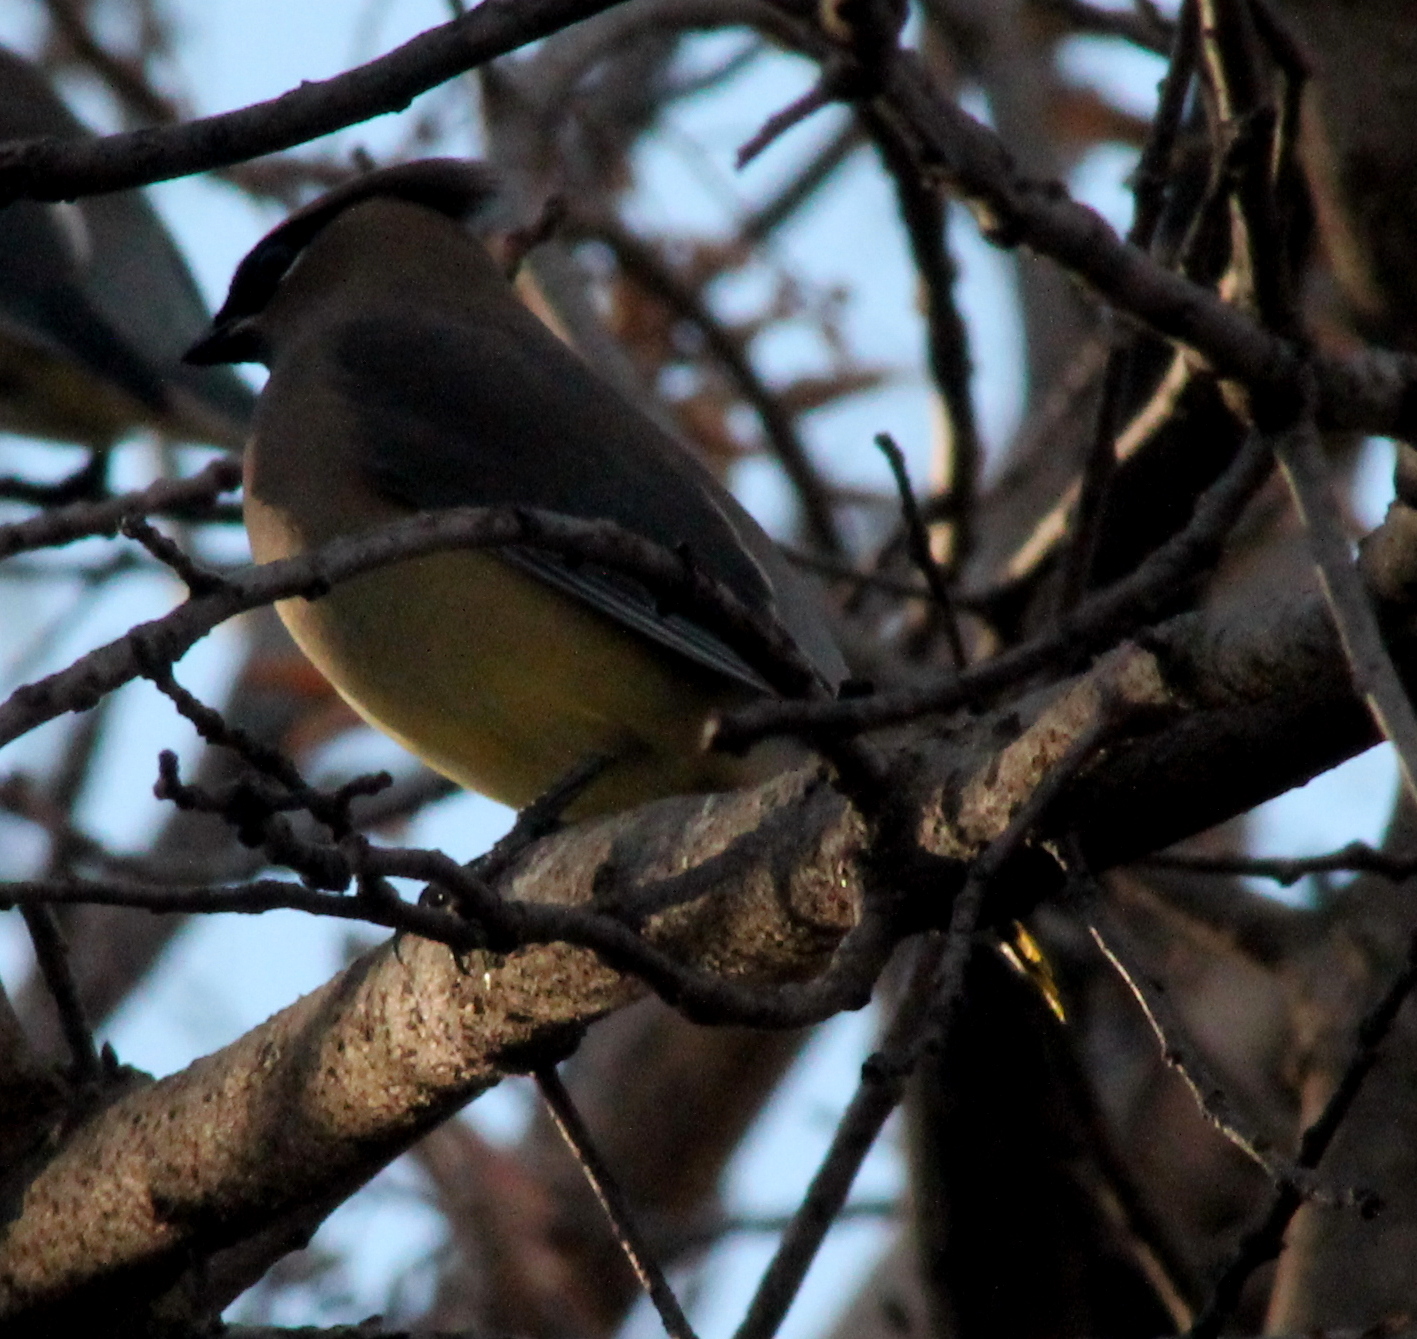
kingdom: Animalia
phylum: Chordata
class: Aves
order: Passeriformes
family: Bombycillidae
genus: Bombycilla
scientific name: Bombycilla cedrorum
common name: Cedar waxwing
